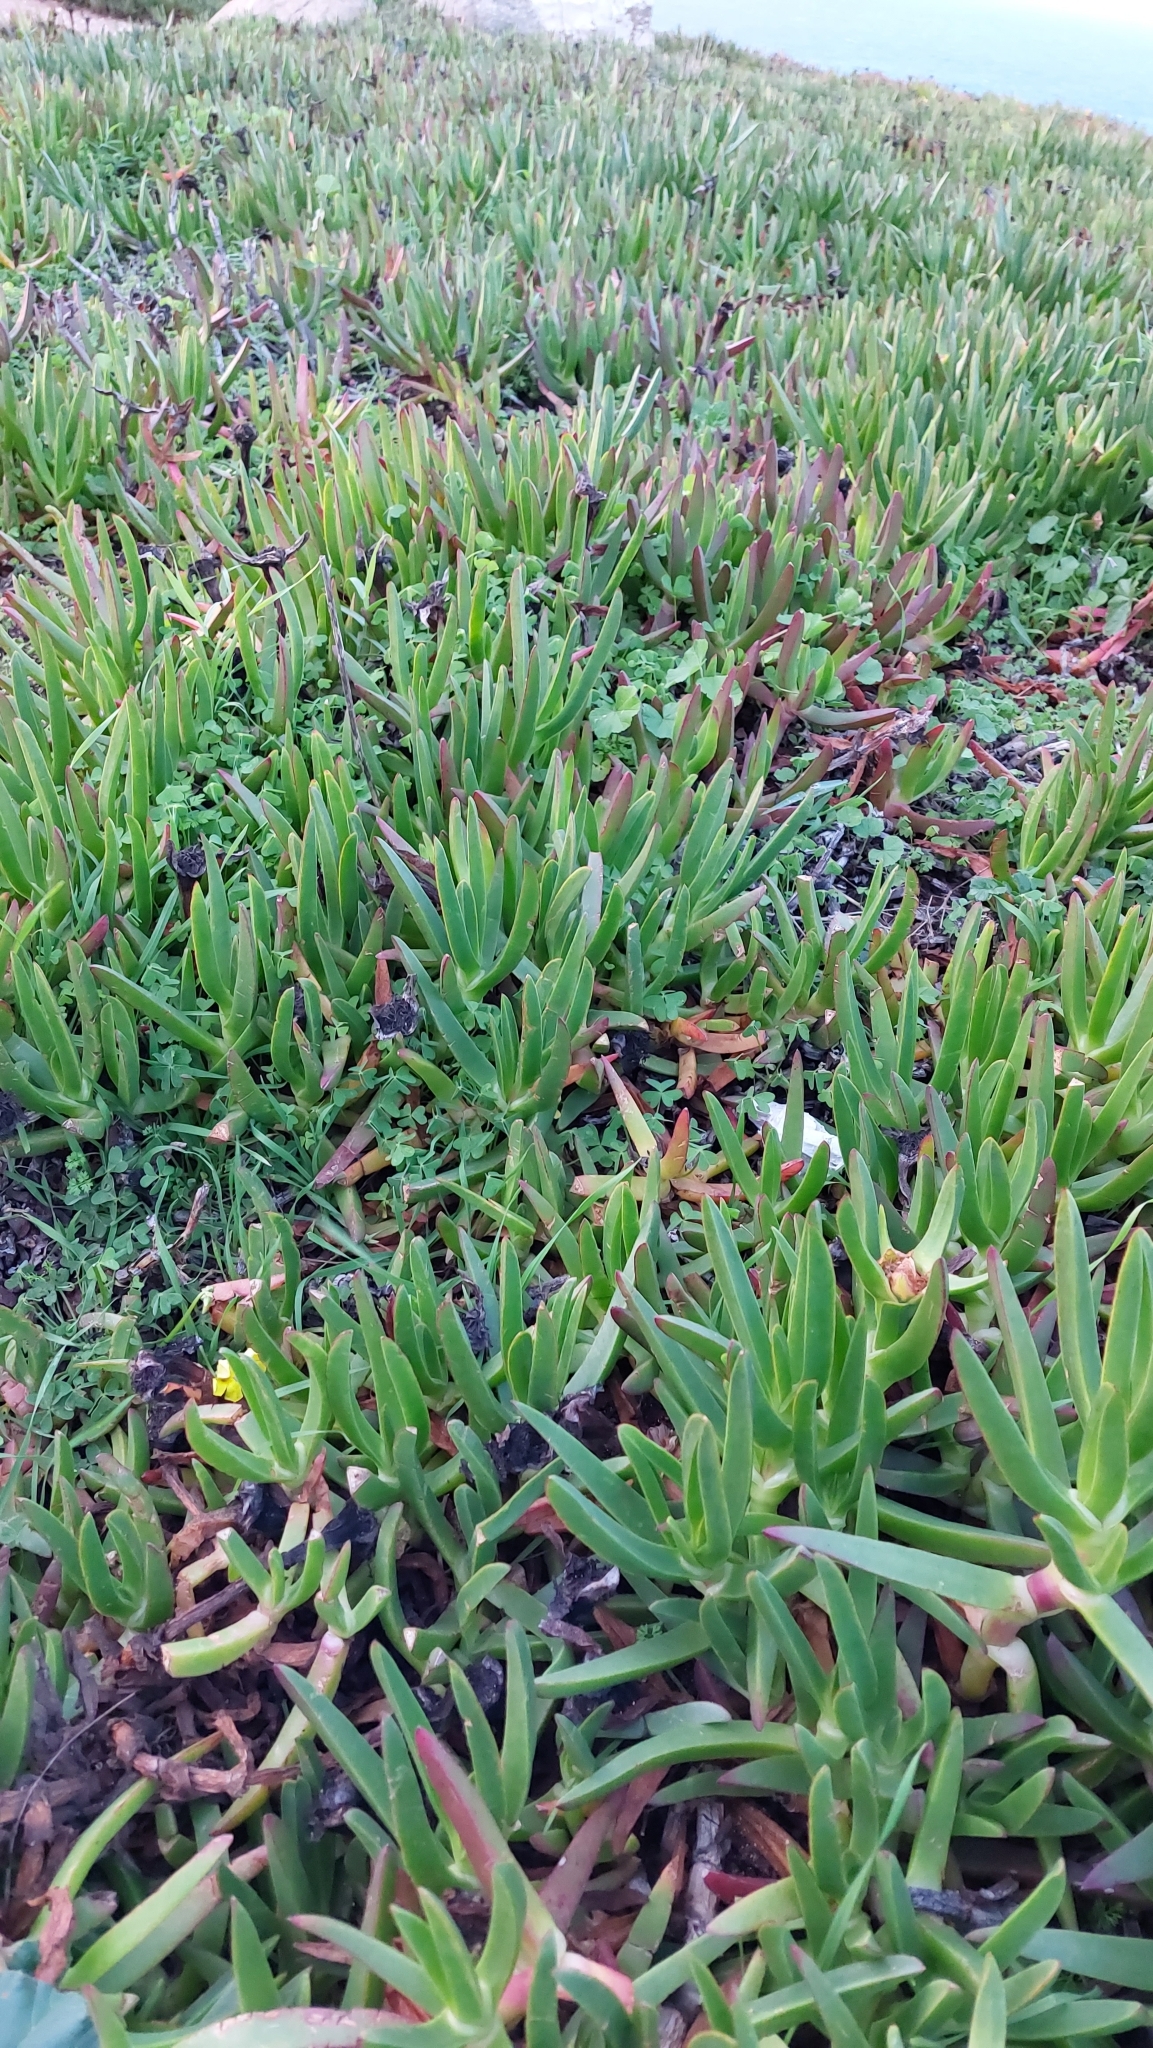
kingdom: Plantae
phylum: Tracheophyta
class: Magnoliopsida
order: Caryophyllales
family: Aizoaceae
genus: Carpobrotus
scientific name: Carpobrotus edulis
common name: Hottentot-fig
